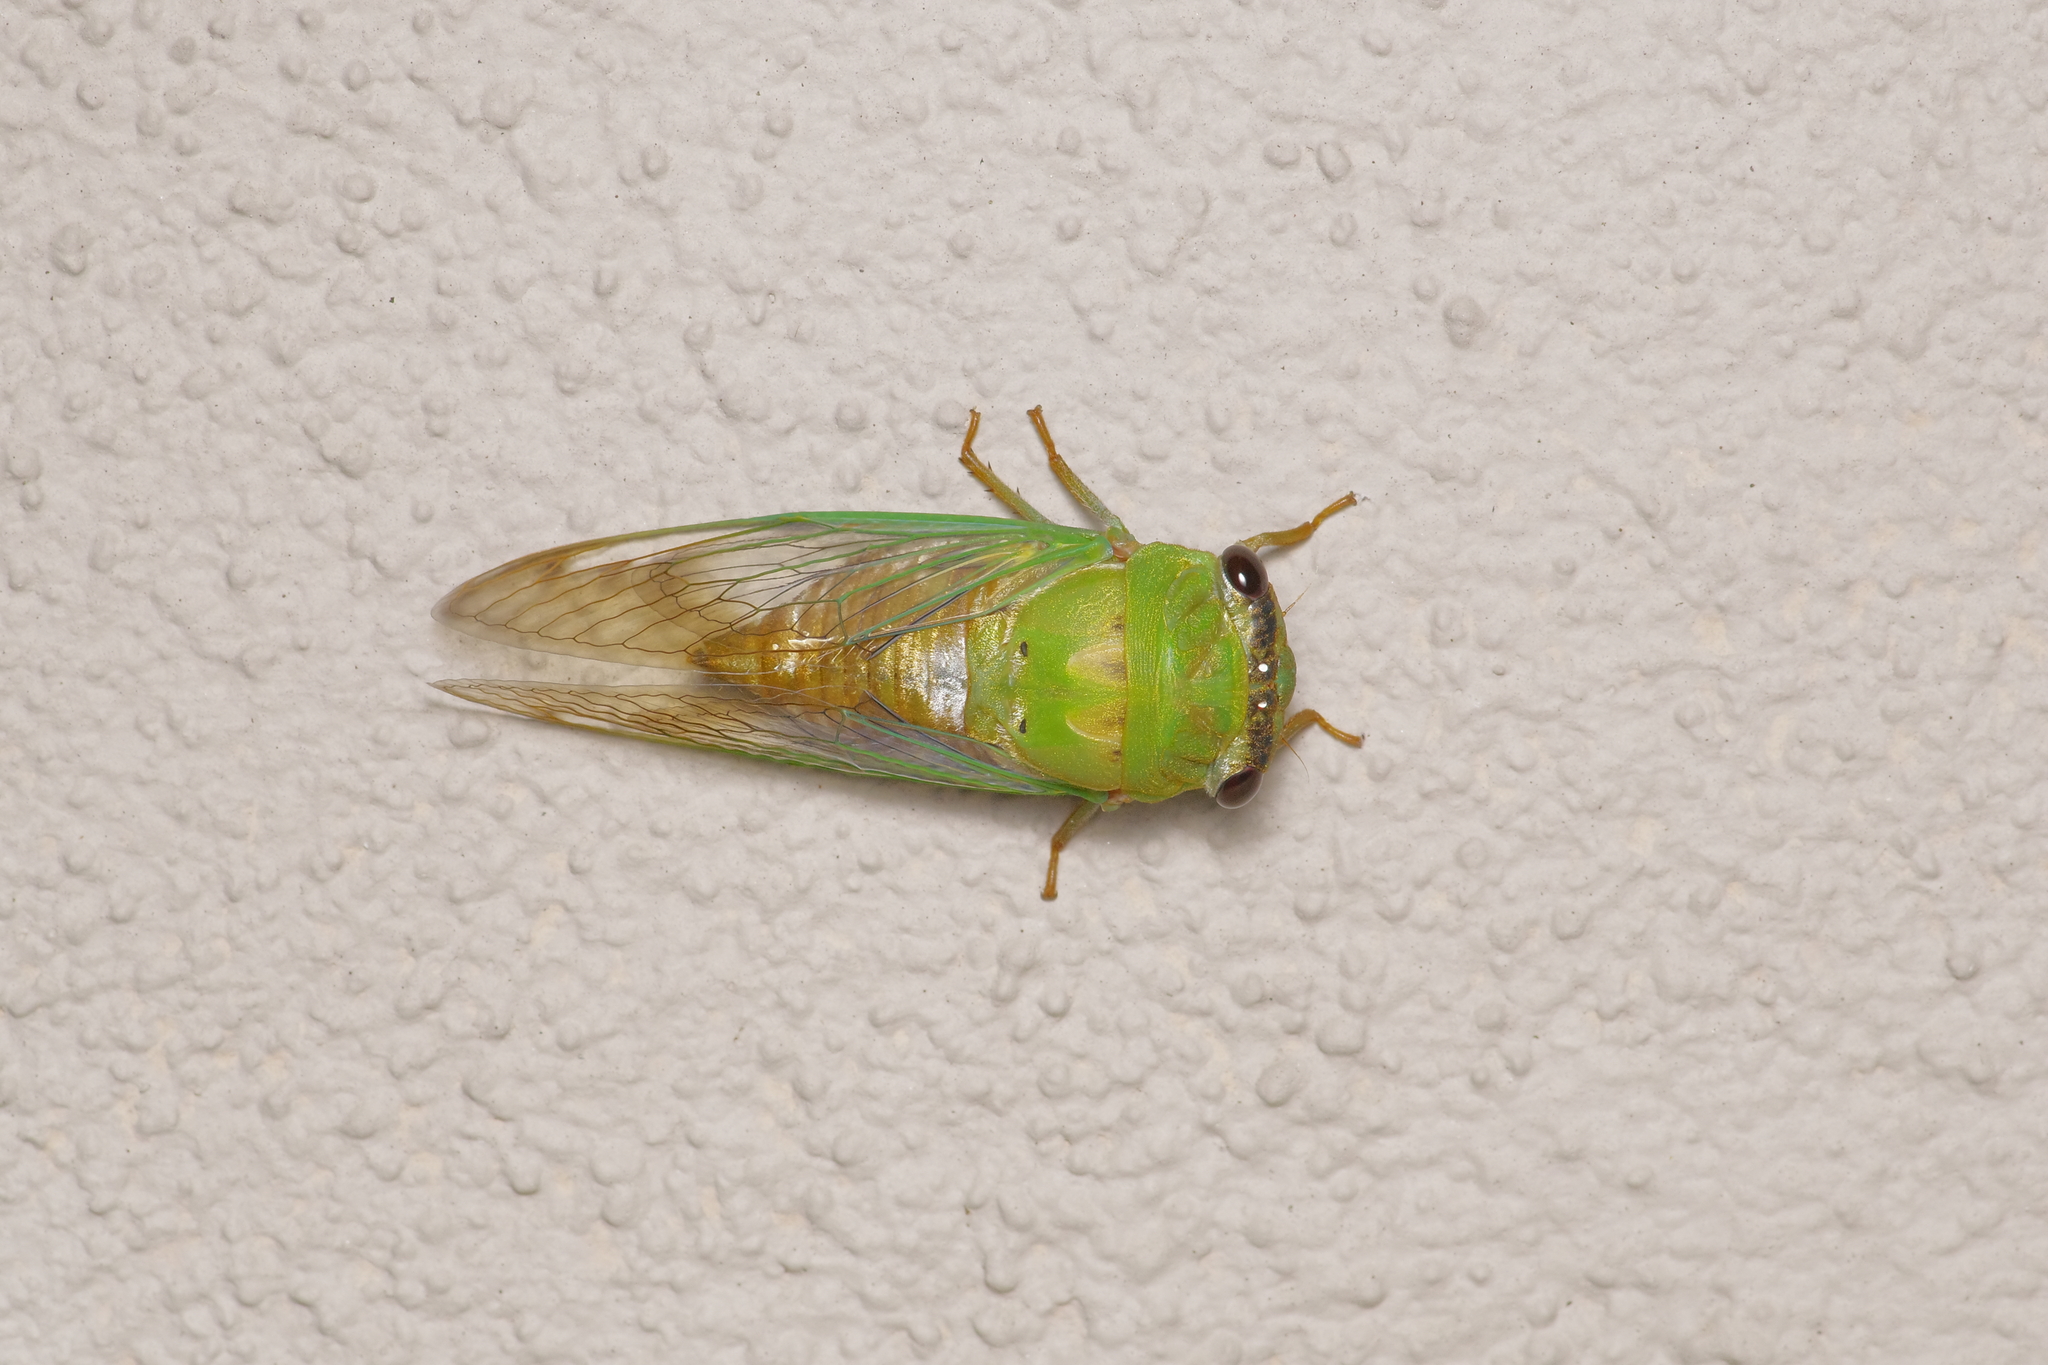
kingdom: Animalia
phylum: Arthropoda
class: Insecta
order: Hemiptera
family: Cicadidae
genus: Neotibicen
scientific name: Neotibicen superbus
